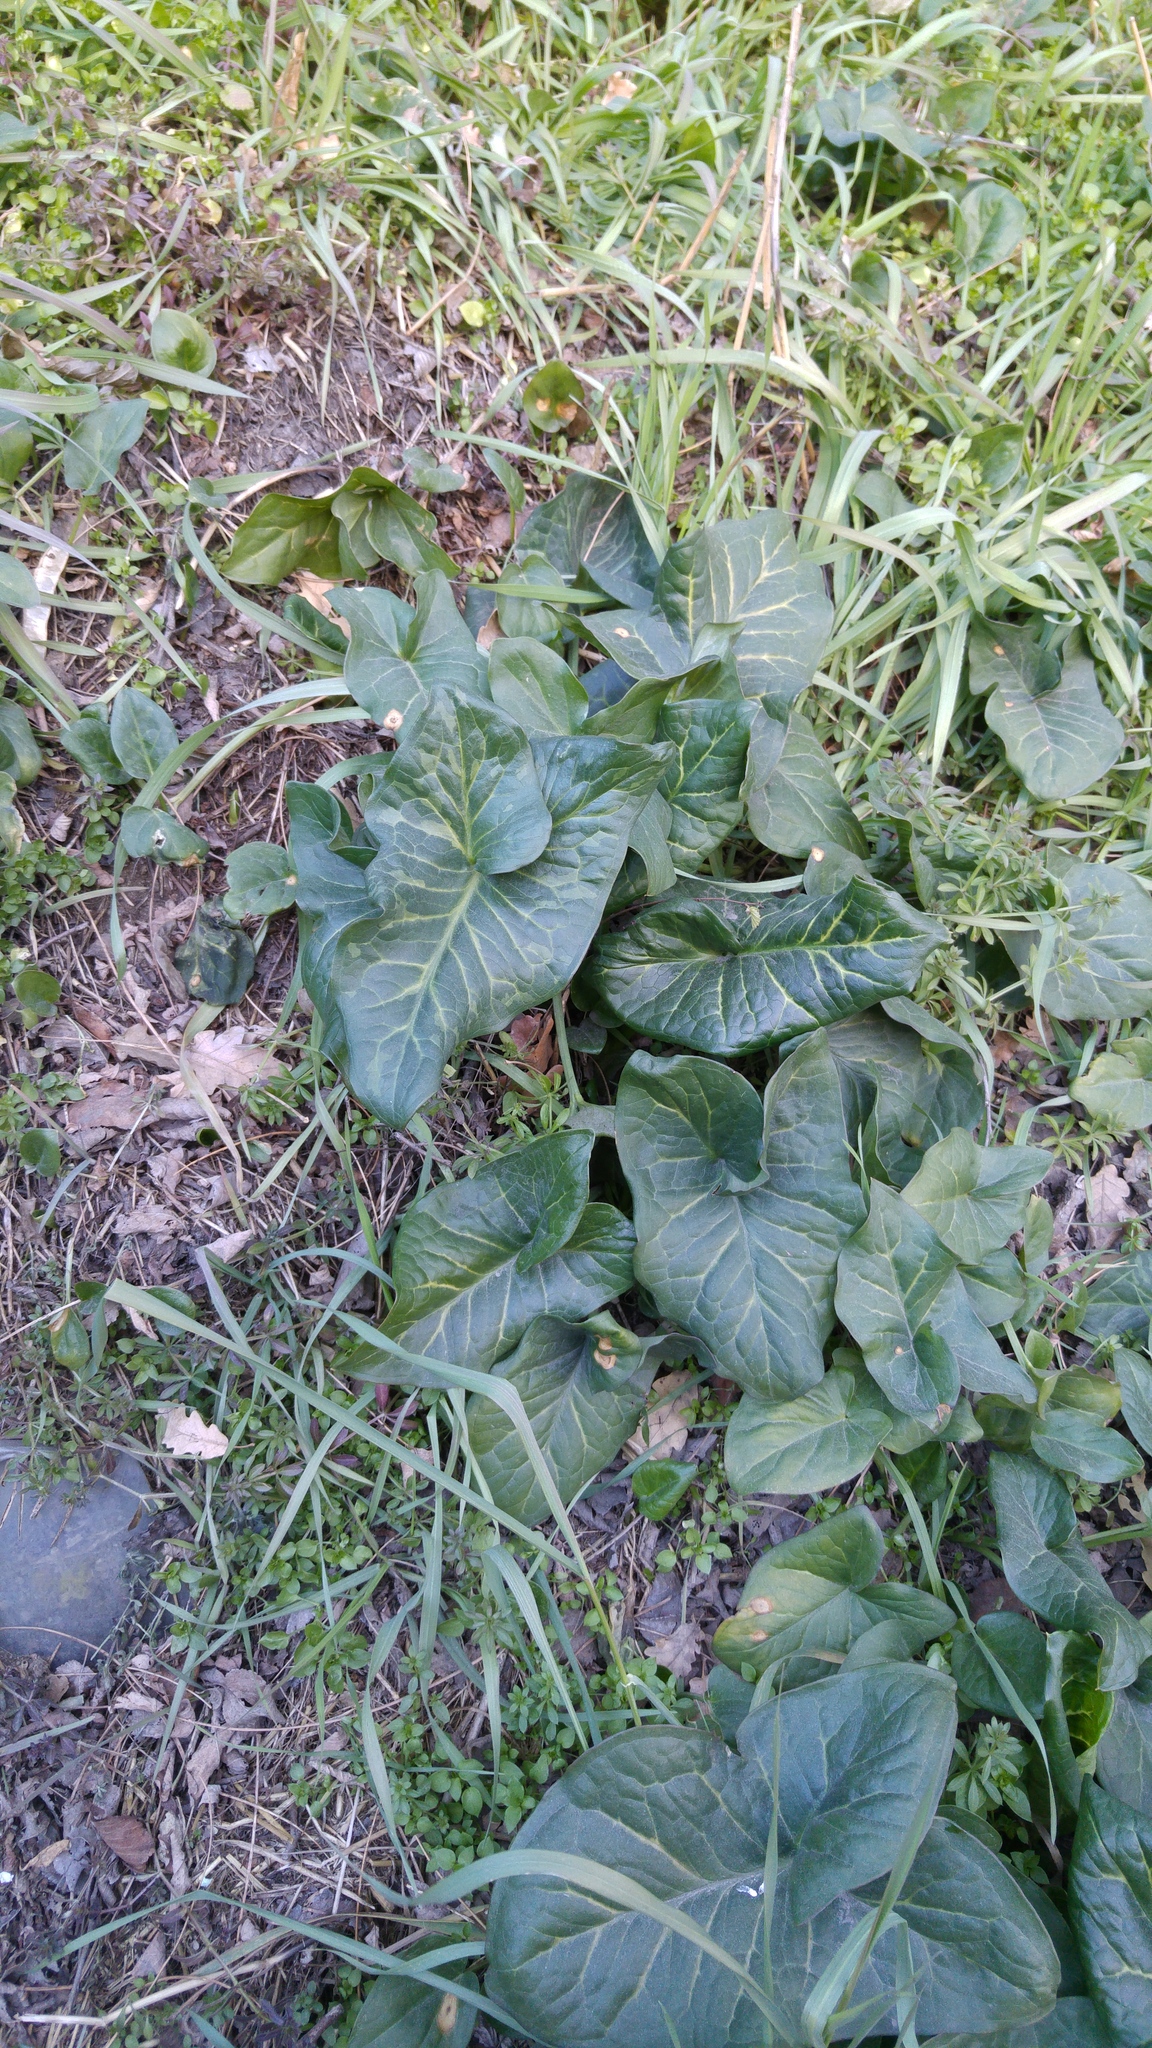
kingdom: Plantae
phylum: Tracheophyta
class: Liliopsida
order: Alismatales
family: Araceae
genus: Arum
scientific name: Arum italicum
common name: Italian lords-and-ladies
